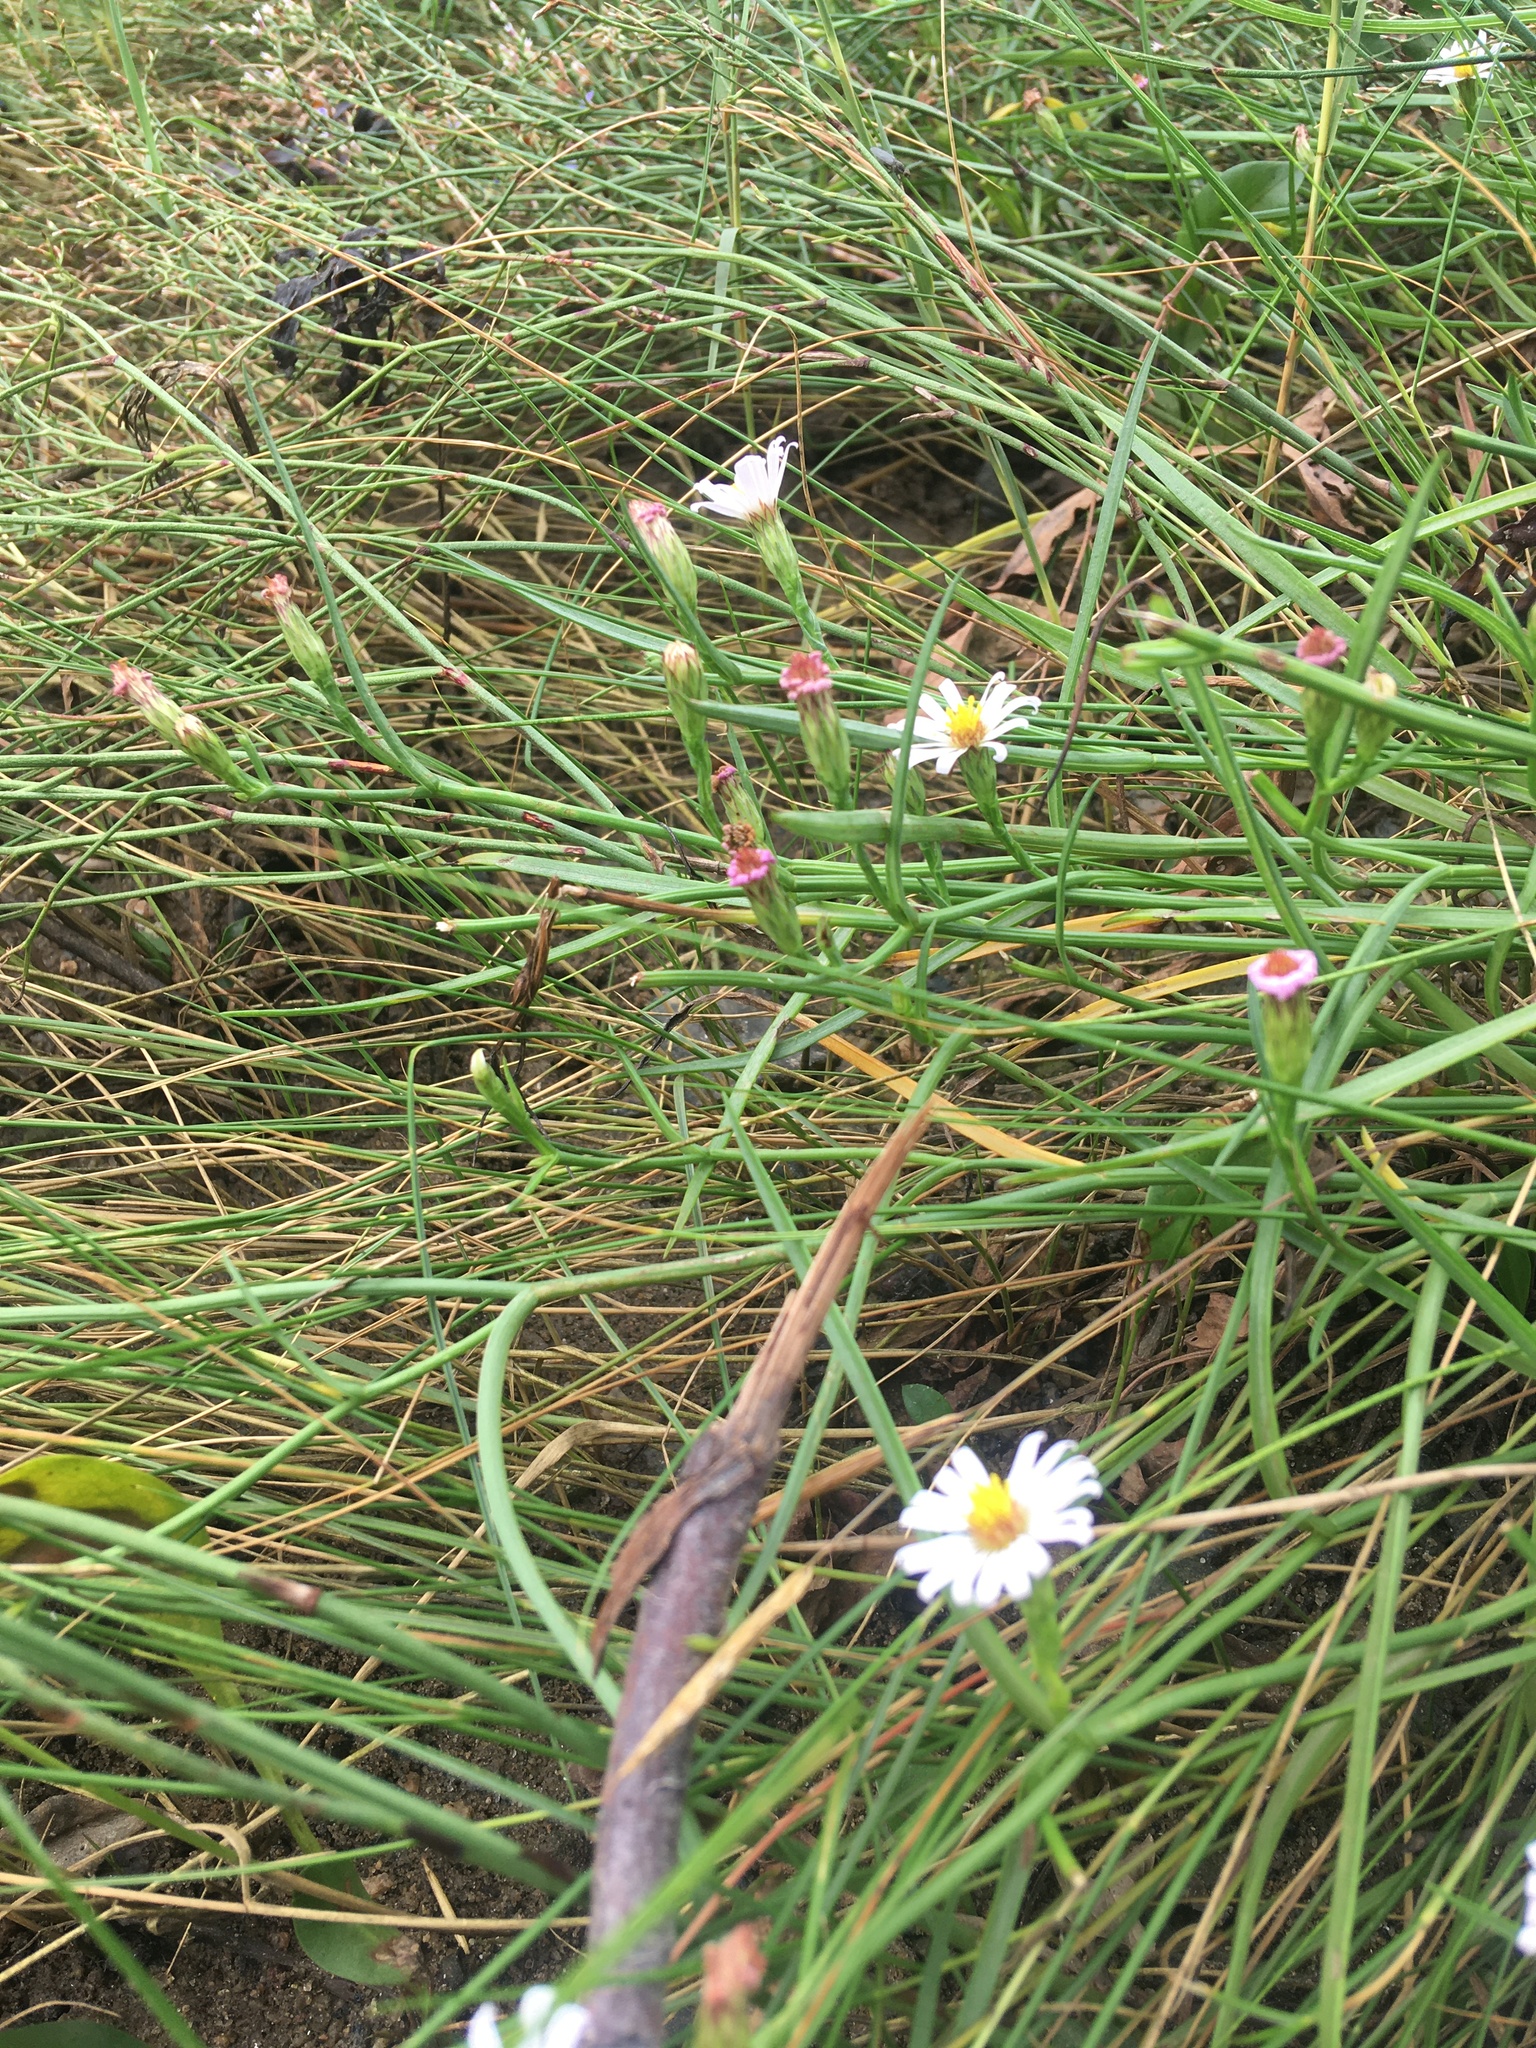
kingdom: Plantae
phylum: Tracheophyta
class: Magnoliopsida
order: Asterales
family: Asteraceae
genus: Symphyotrichum
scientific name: Symphyotrichum tenuifolium
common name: Perennial salt-marsh aster
